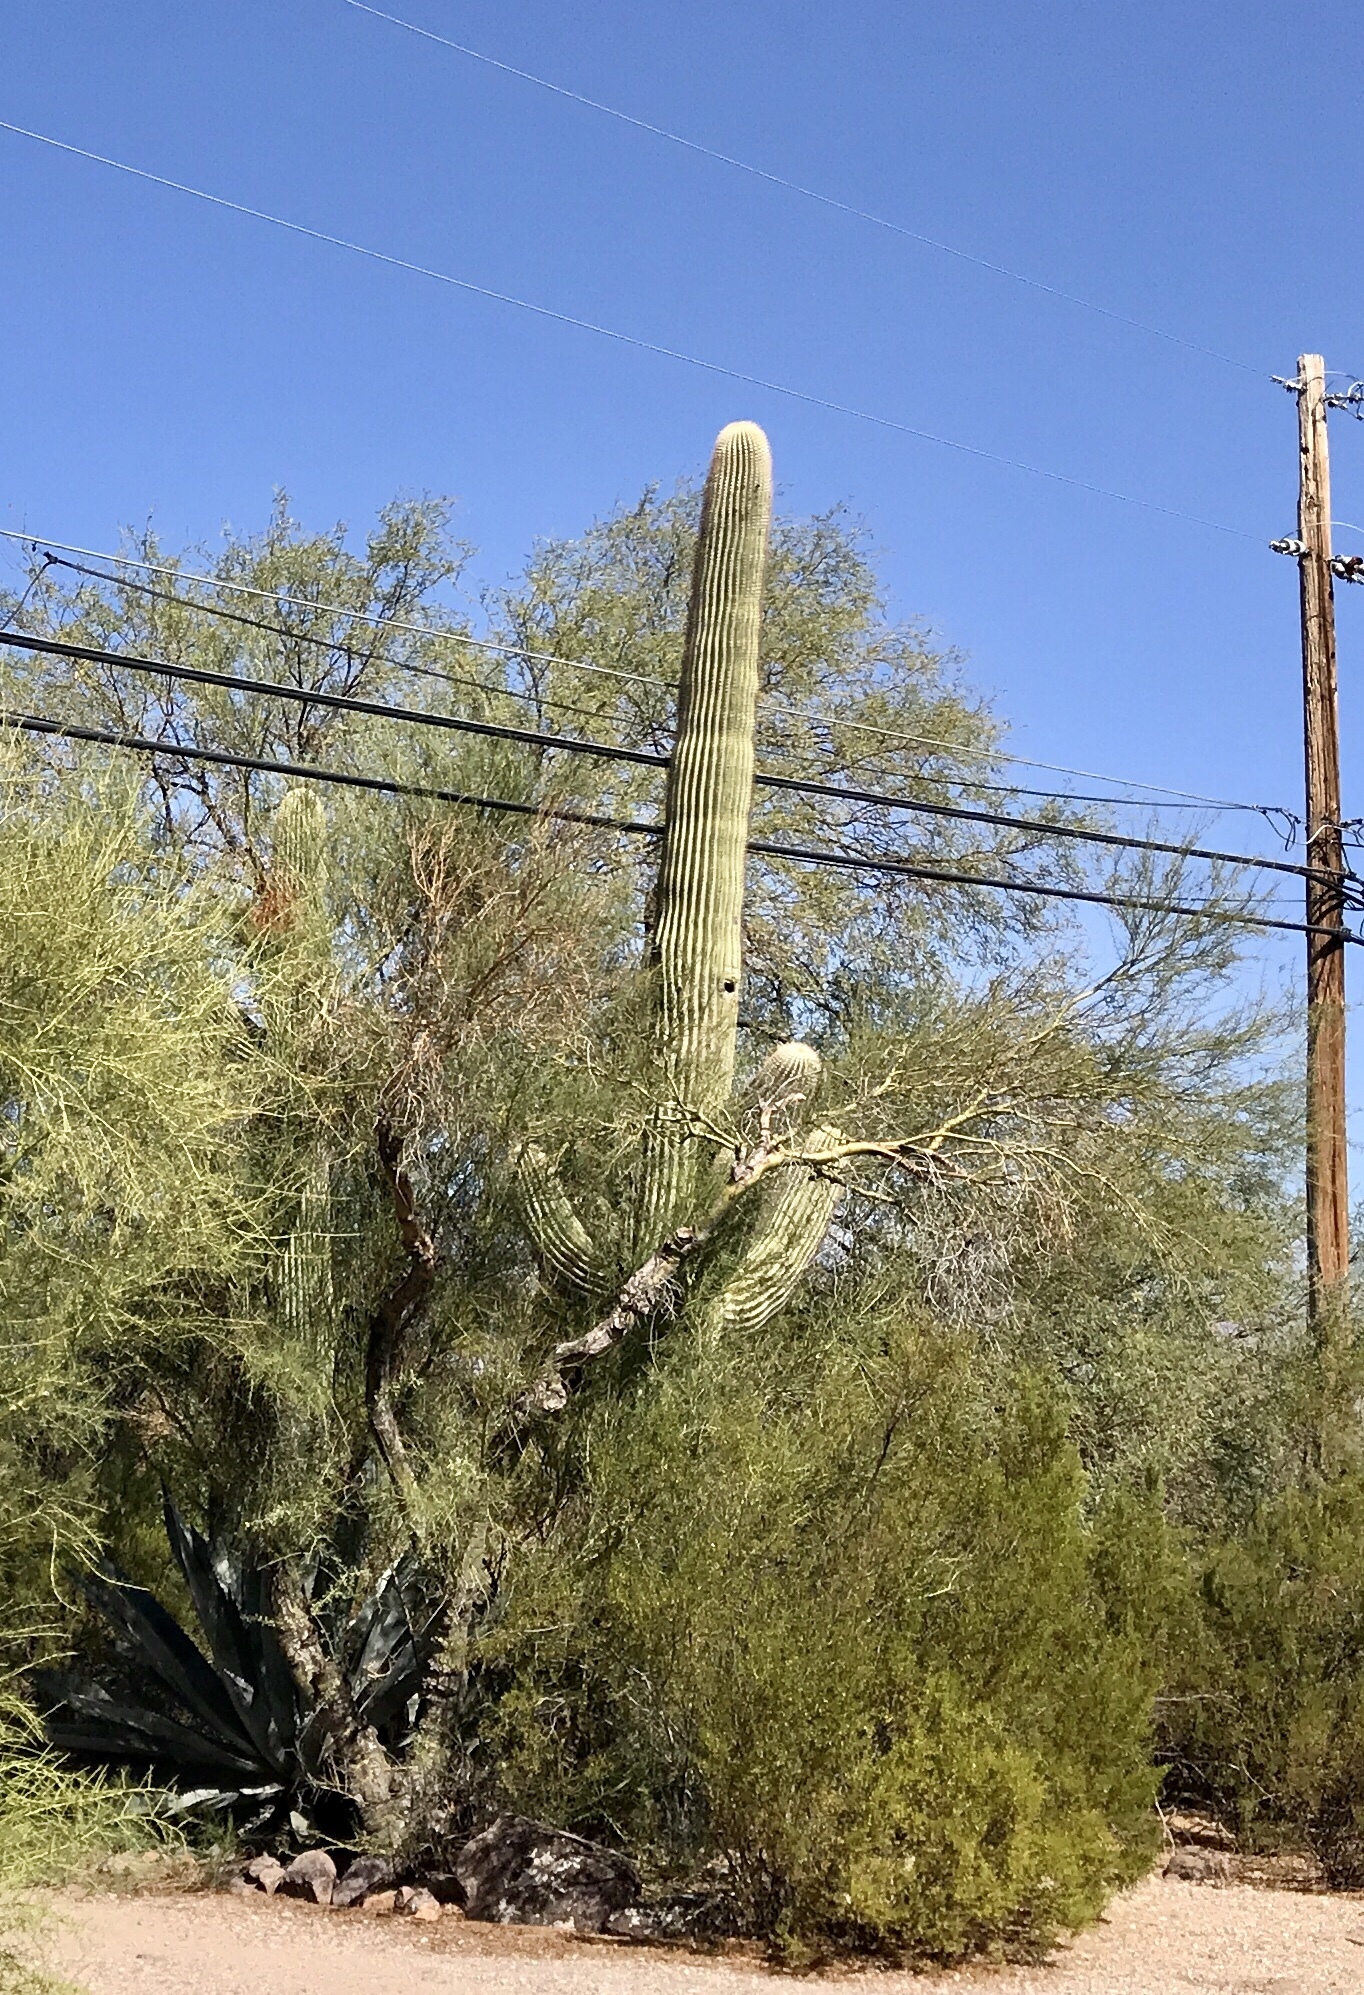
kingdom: Plantae
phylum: Tracheophyta
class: Magnoliopsida
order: Caryophyllales
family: Cactaceae
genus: Carnegiea
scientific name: Carnegiea gigantea
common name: Saguaro
